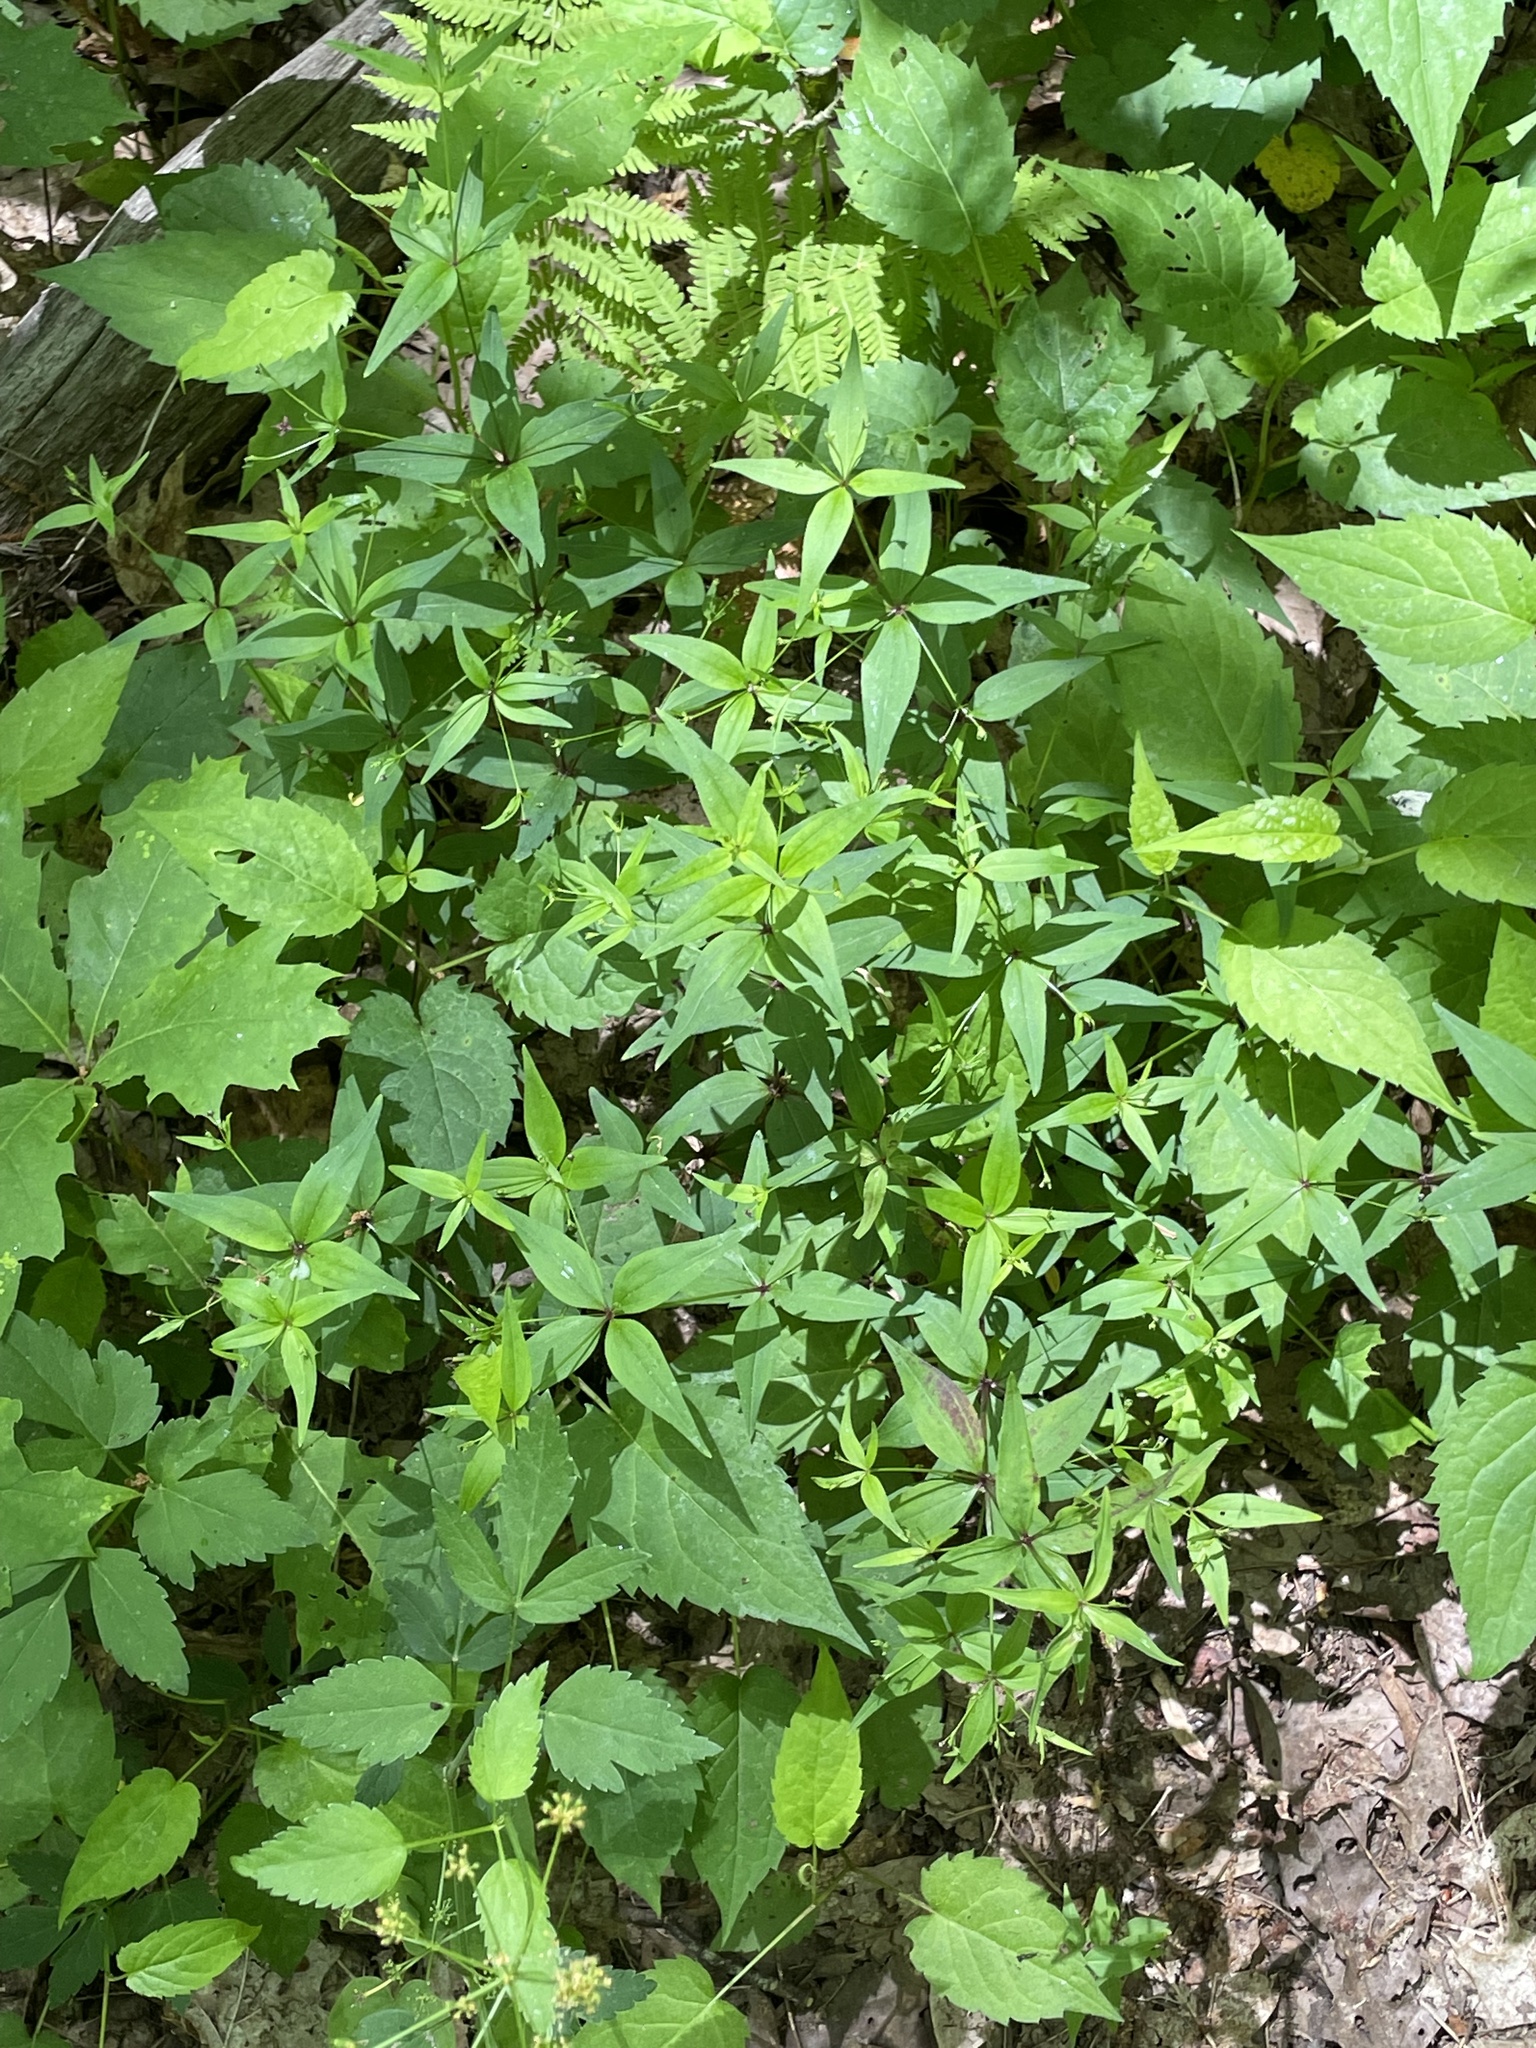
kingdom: Plantae
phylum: Tracheophyta
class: Magnoliopsida
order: Gentianales
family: Rubiaceae
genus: Galium
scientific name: Galium latifolium
